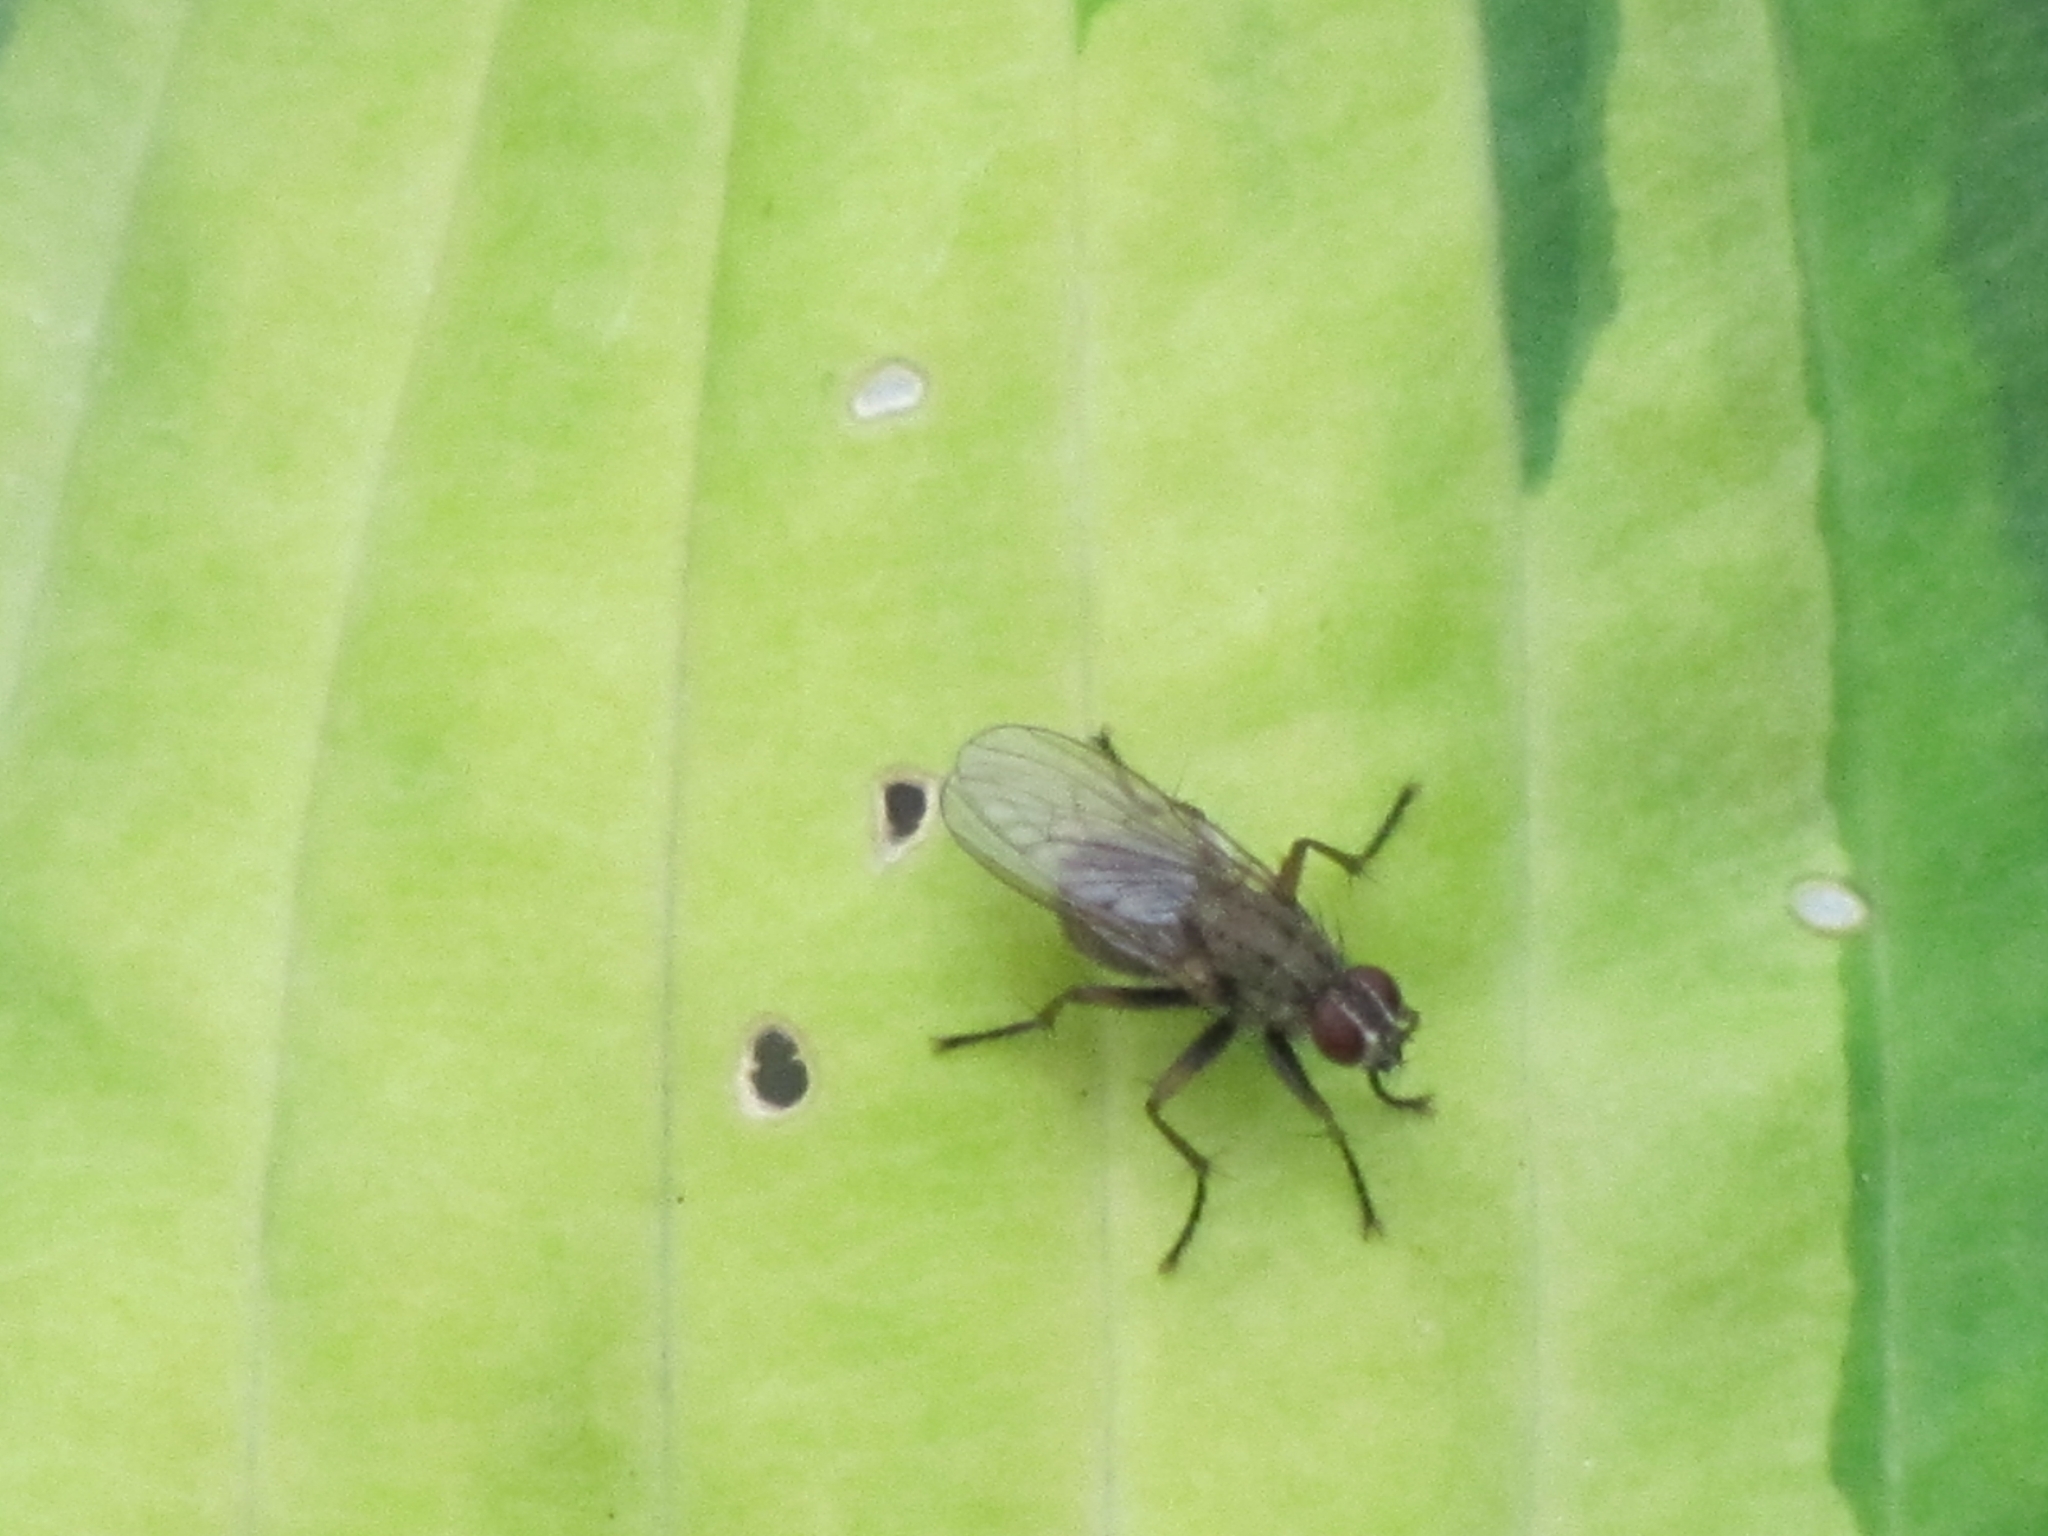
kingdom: Animalia
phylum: Arthropoda
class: Insecta
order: Diptera
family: Muscidae
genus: Coenosia
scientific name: Coenosia tigrina
